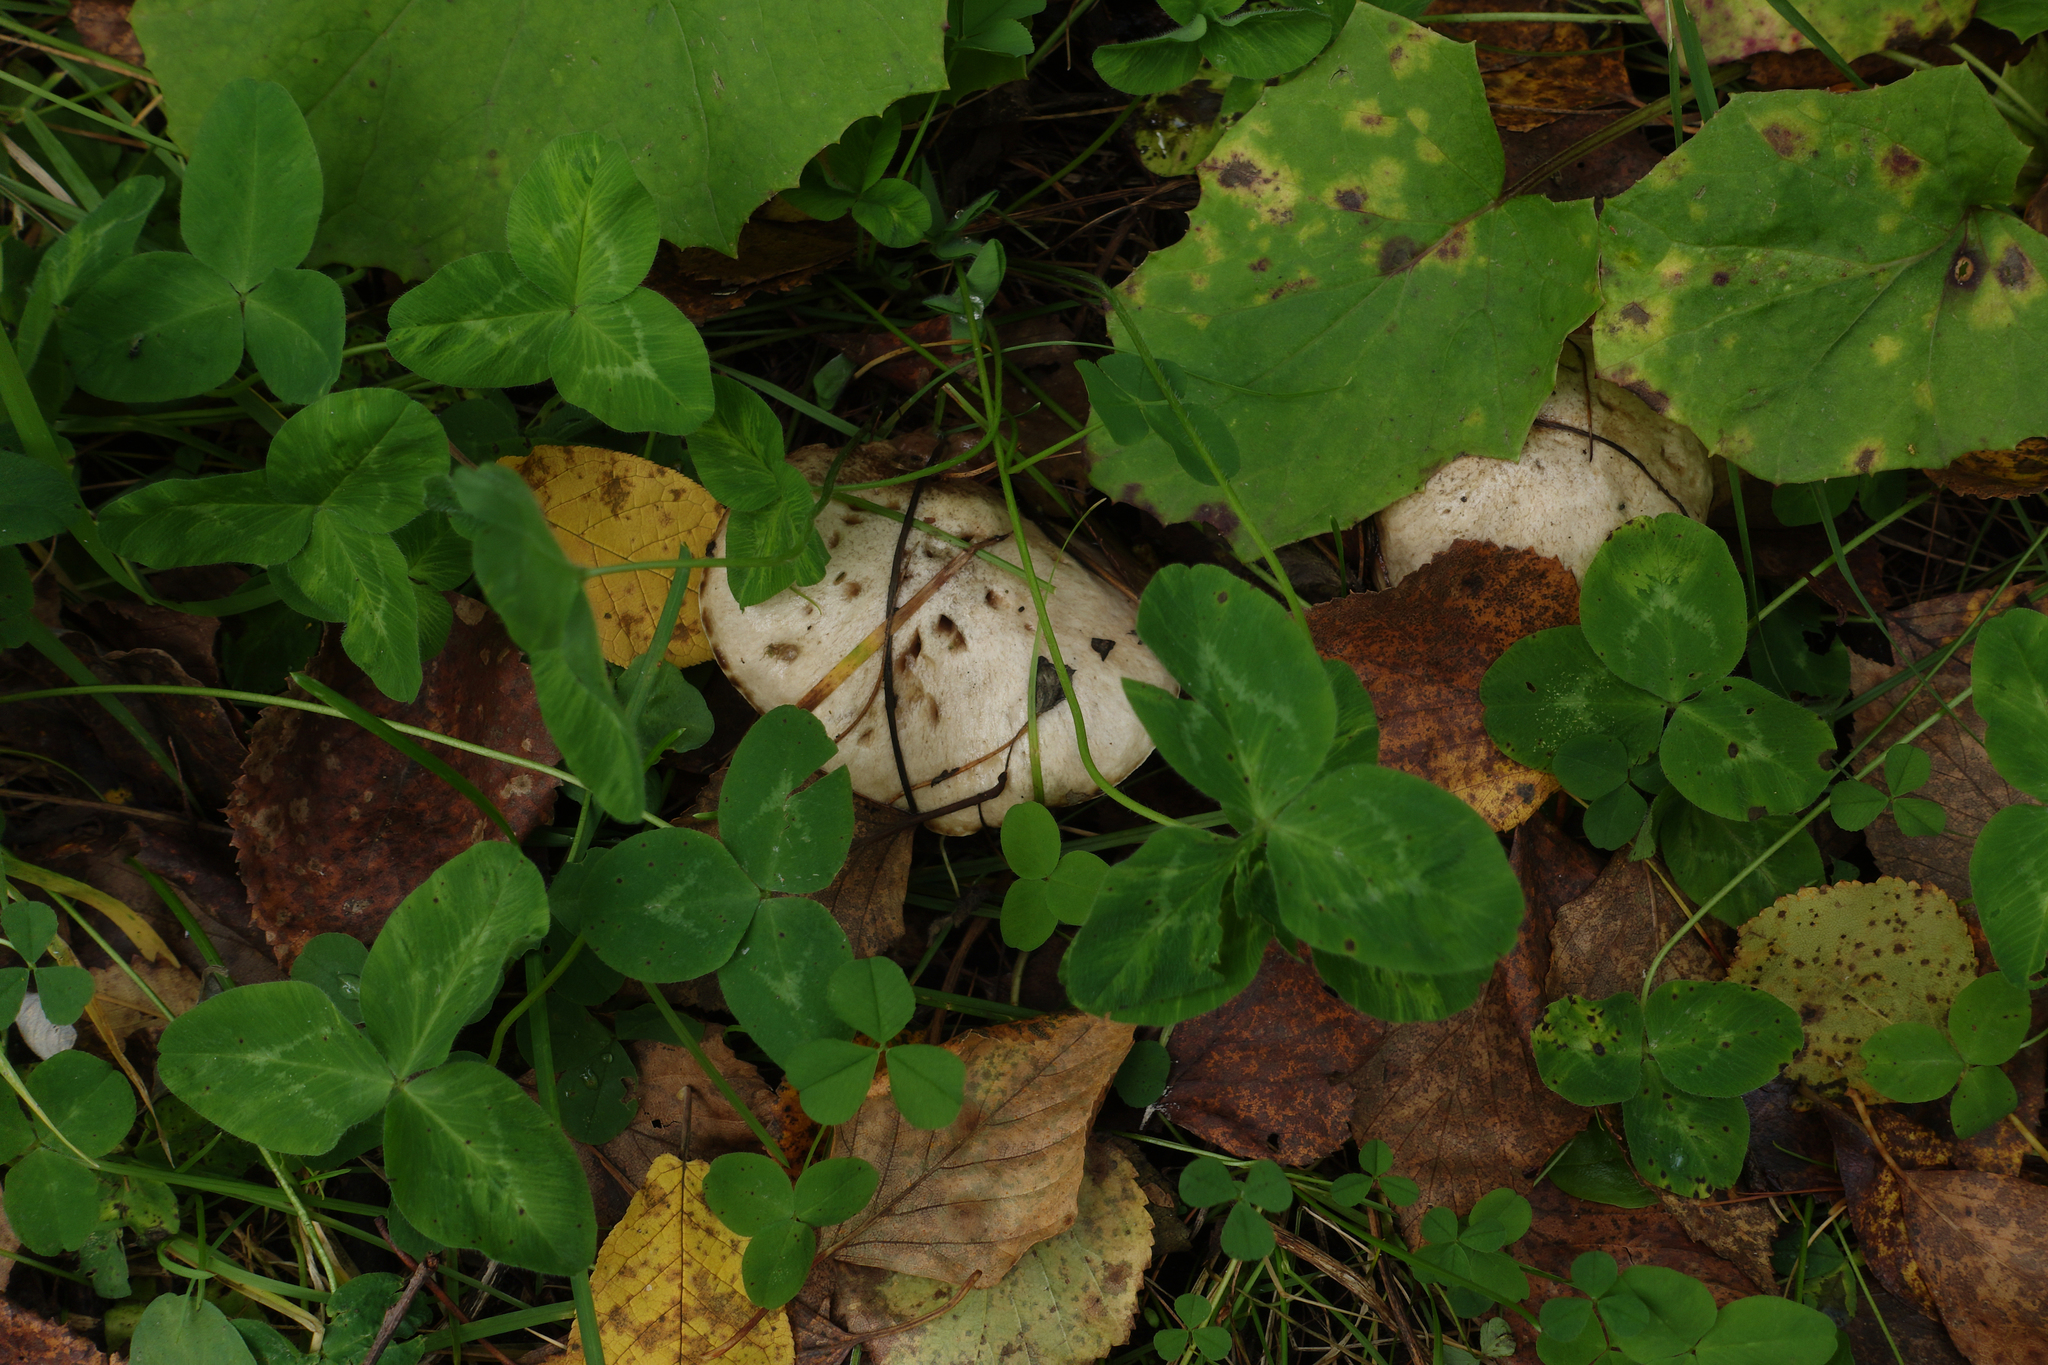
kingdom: Fungi
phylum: Basidiomycota
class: Agaricomycetes
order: Boletales
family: Suillaceae
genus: Suillus
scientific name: Suillus viscidus
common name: Sticky bolete
